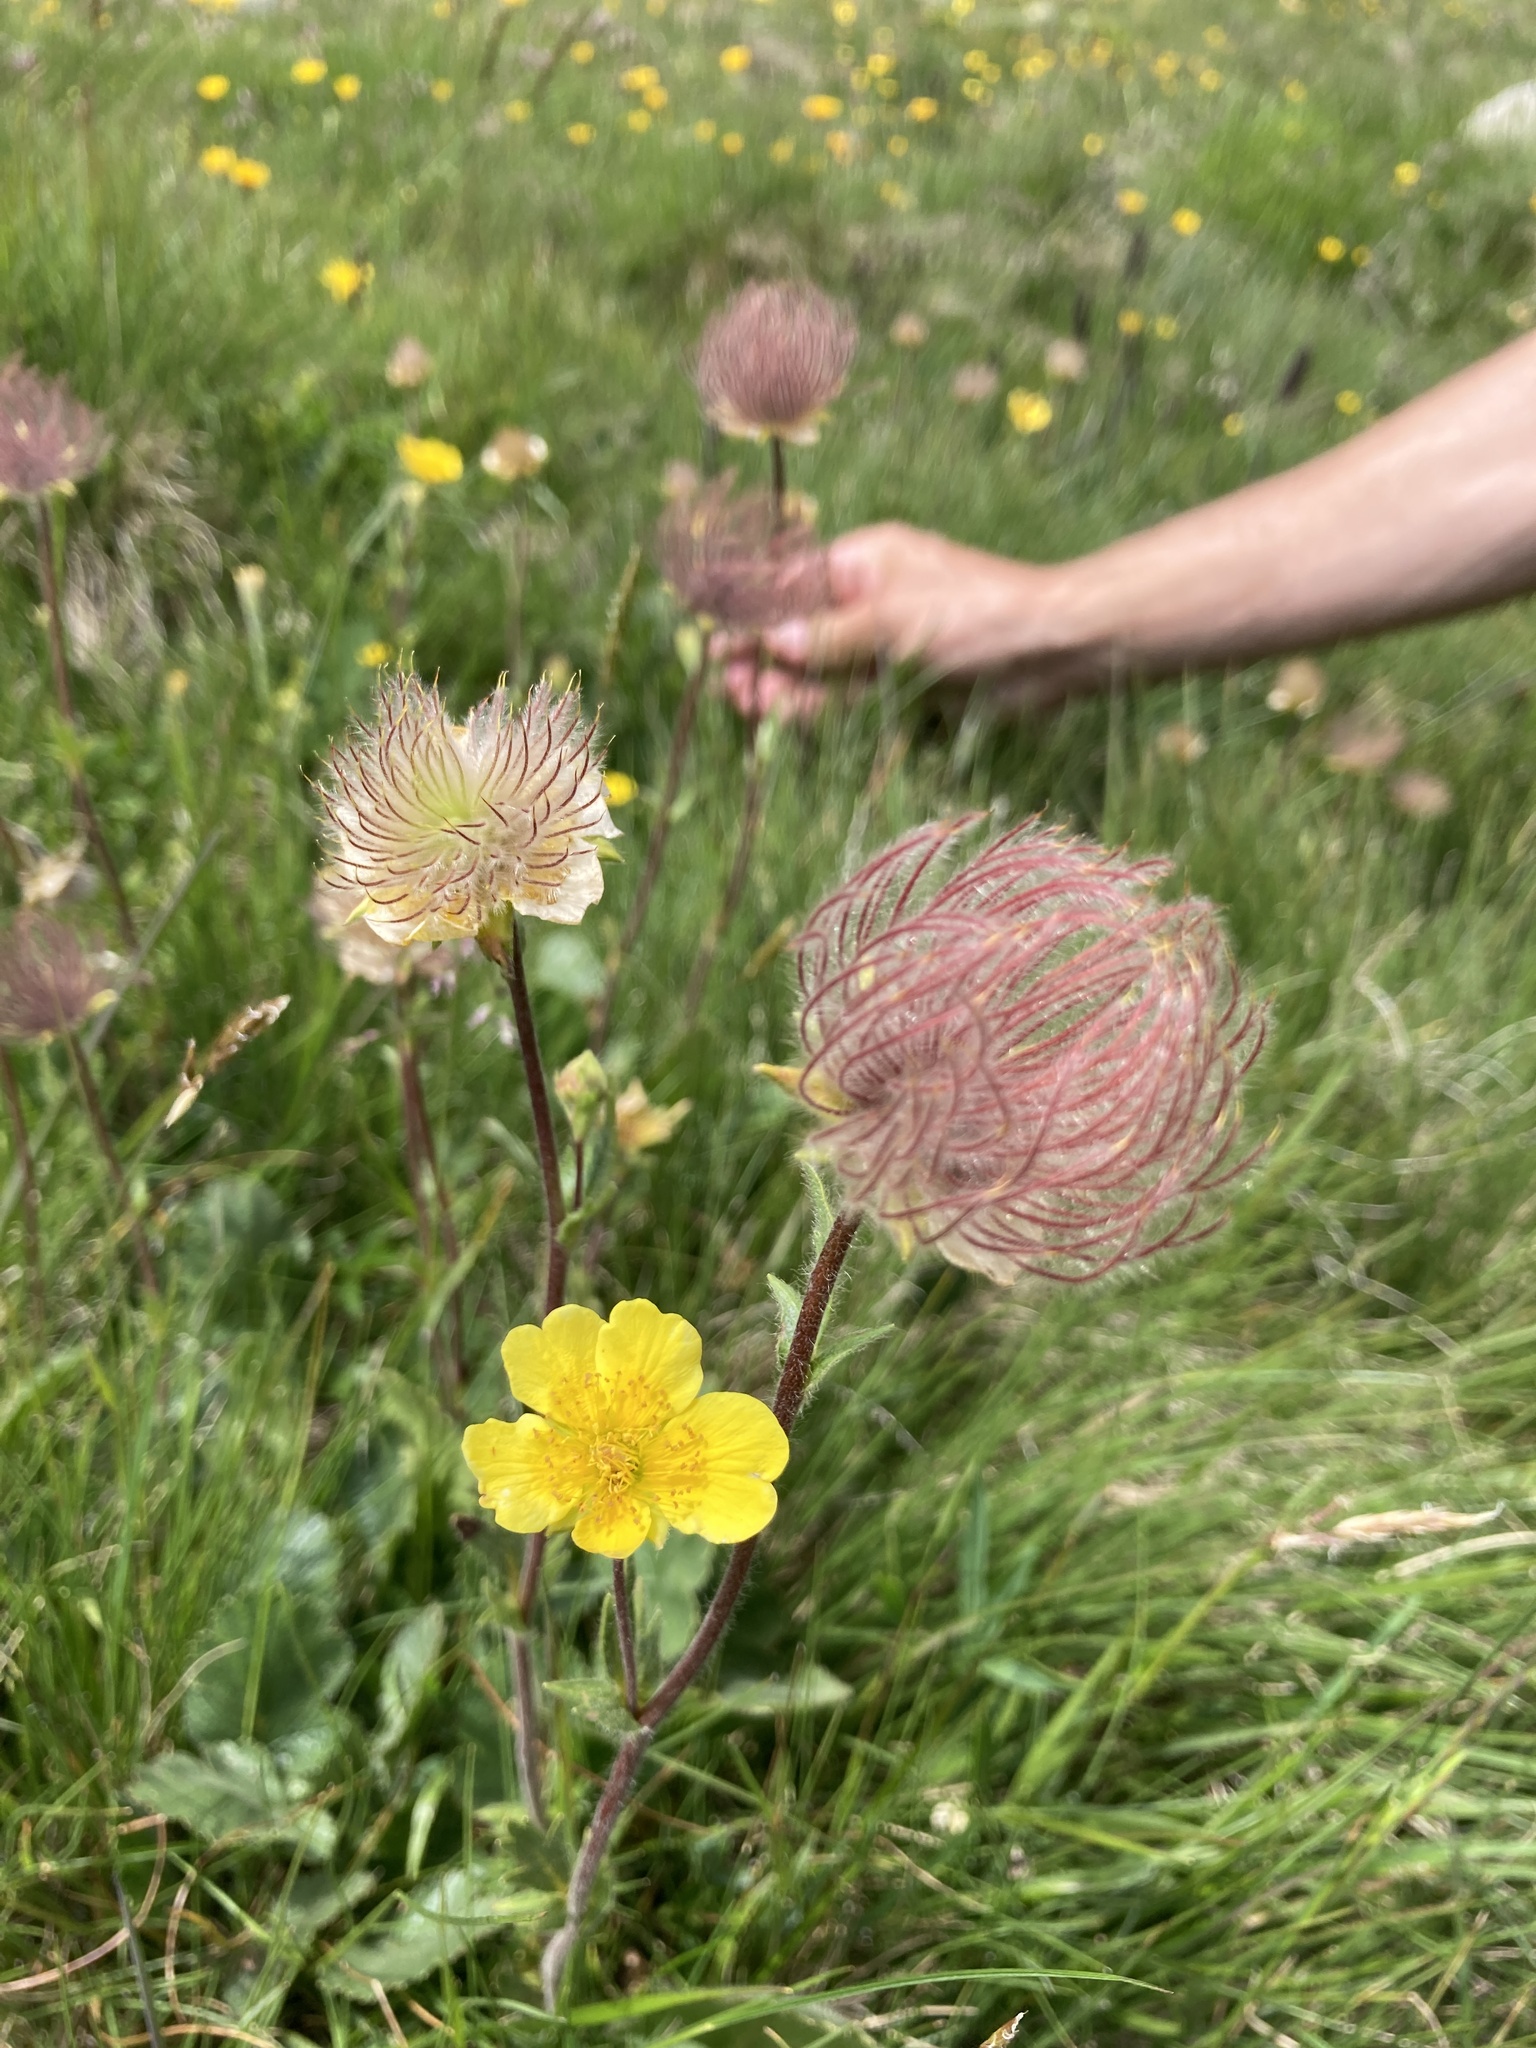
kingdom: Plantae
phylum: Tracheophyta
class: Magnoliopsida
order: Rosales
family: Rosaceae
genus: Geum
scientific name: Geum montanum
